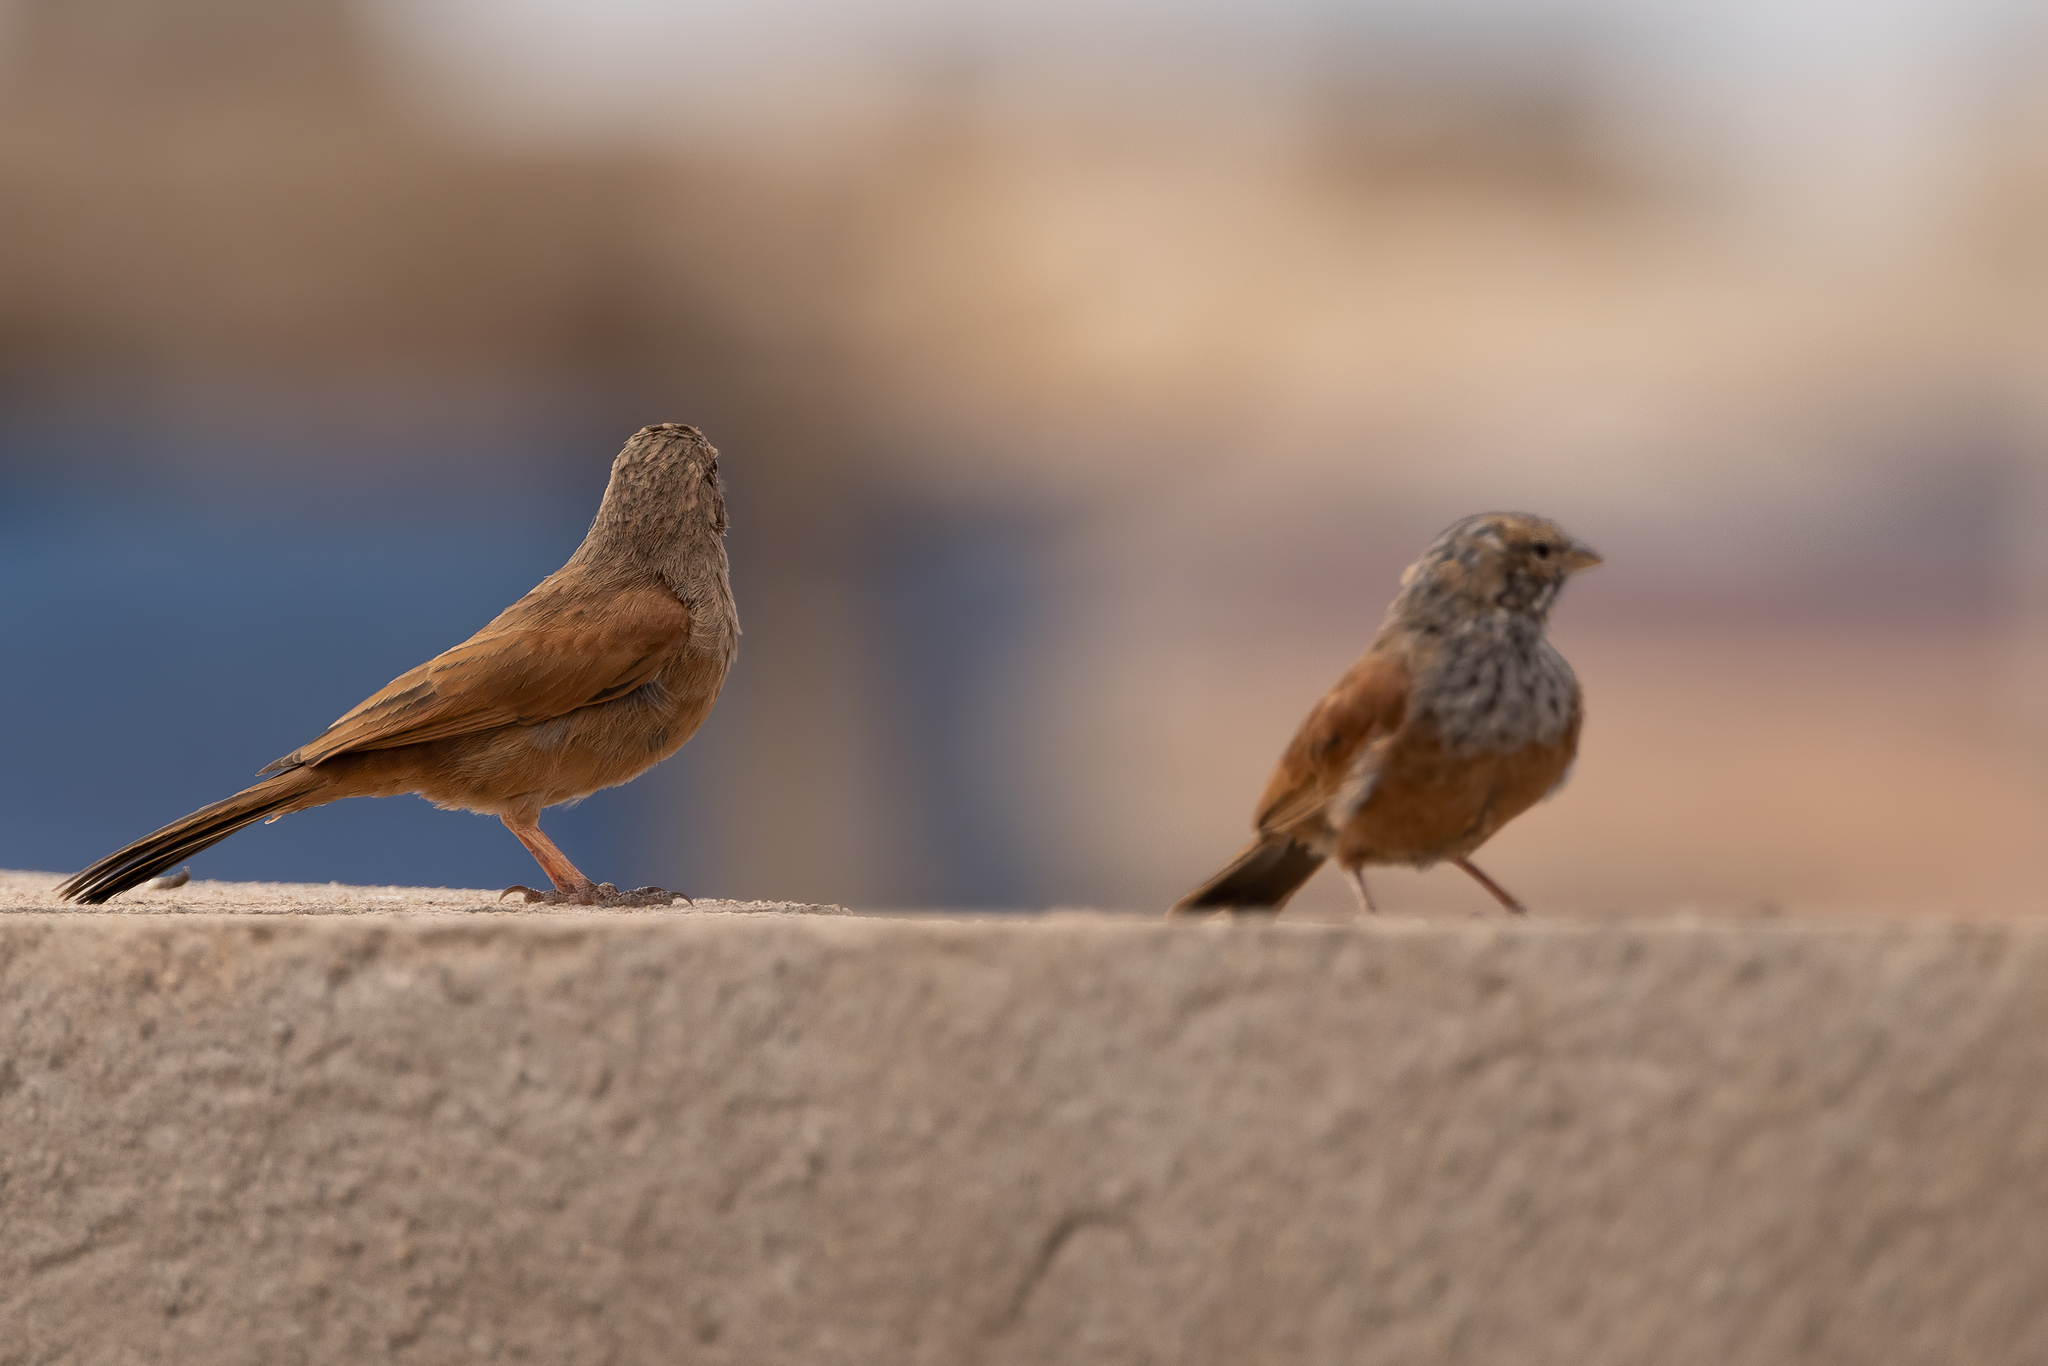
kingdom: Animalia
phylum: Chordata
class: Aves
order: Passeriformes
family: Emberizidae
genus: Emberiza
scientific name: Emberiza sahari
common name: House bunting
